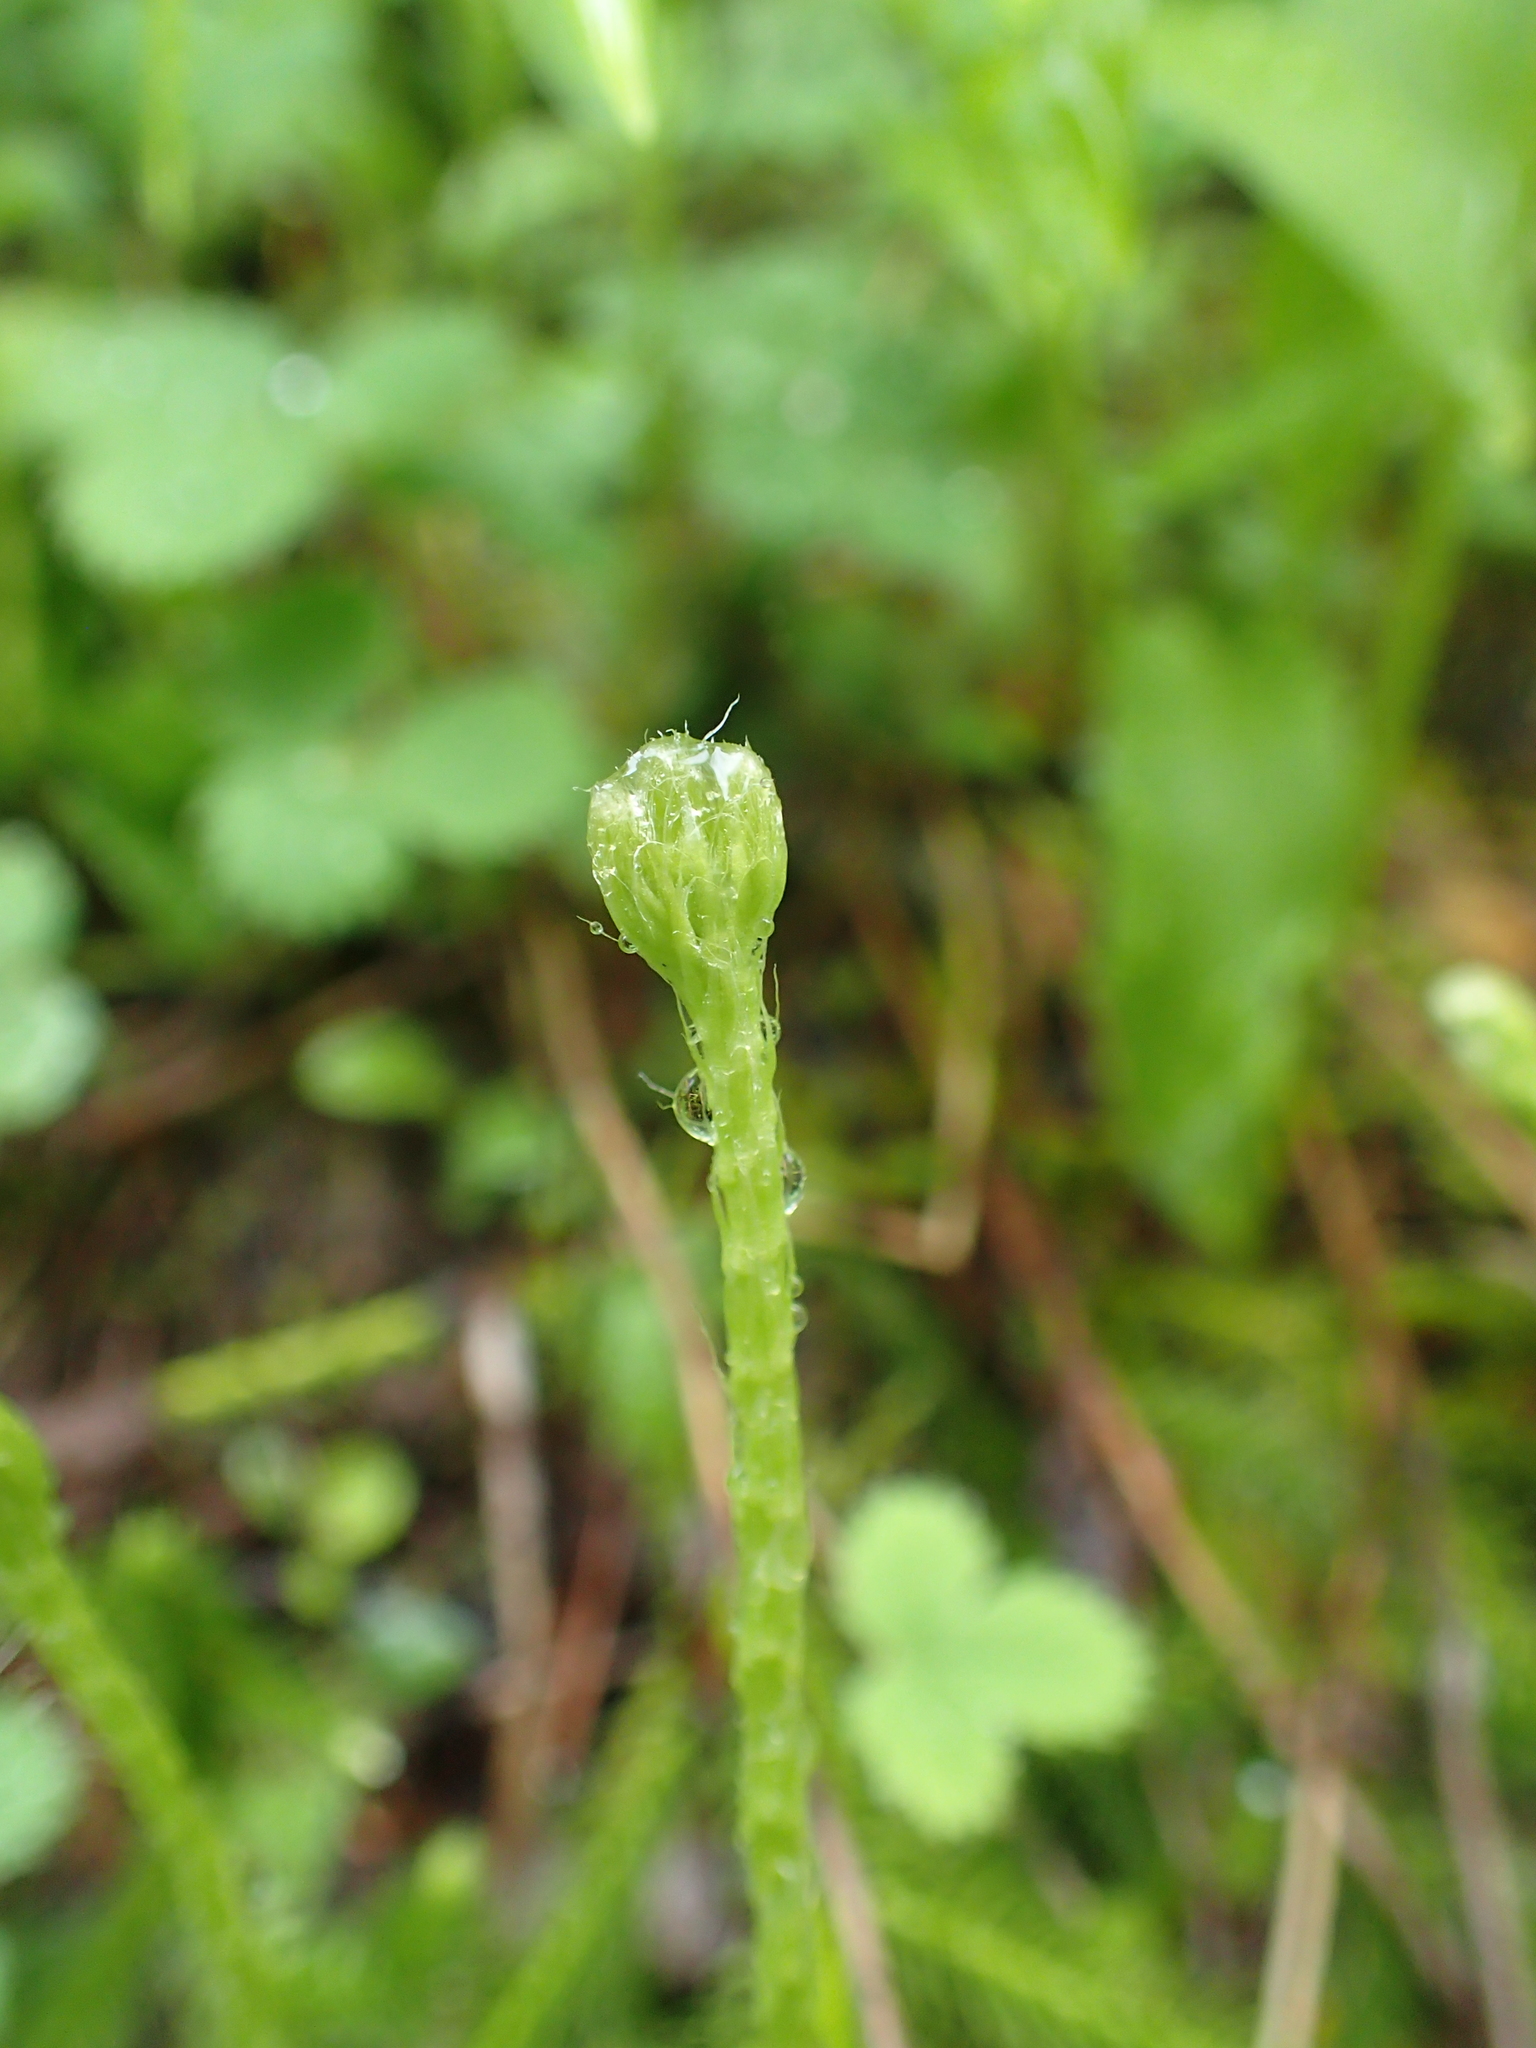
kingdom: Plantae
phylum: Tracheophyta
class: Lycopodiopsida
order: Lycopodiales
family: Lycopodiaceae
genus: Lycopodium
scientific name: Lycopodium clavatum
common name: Stag's-horn clubmoss
